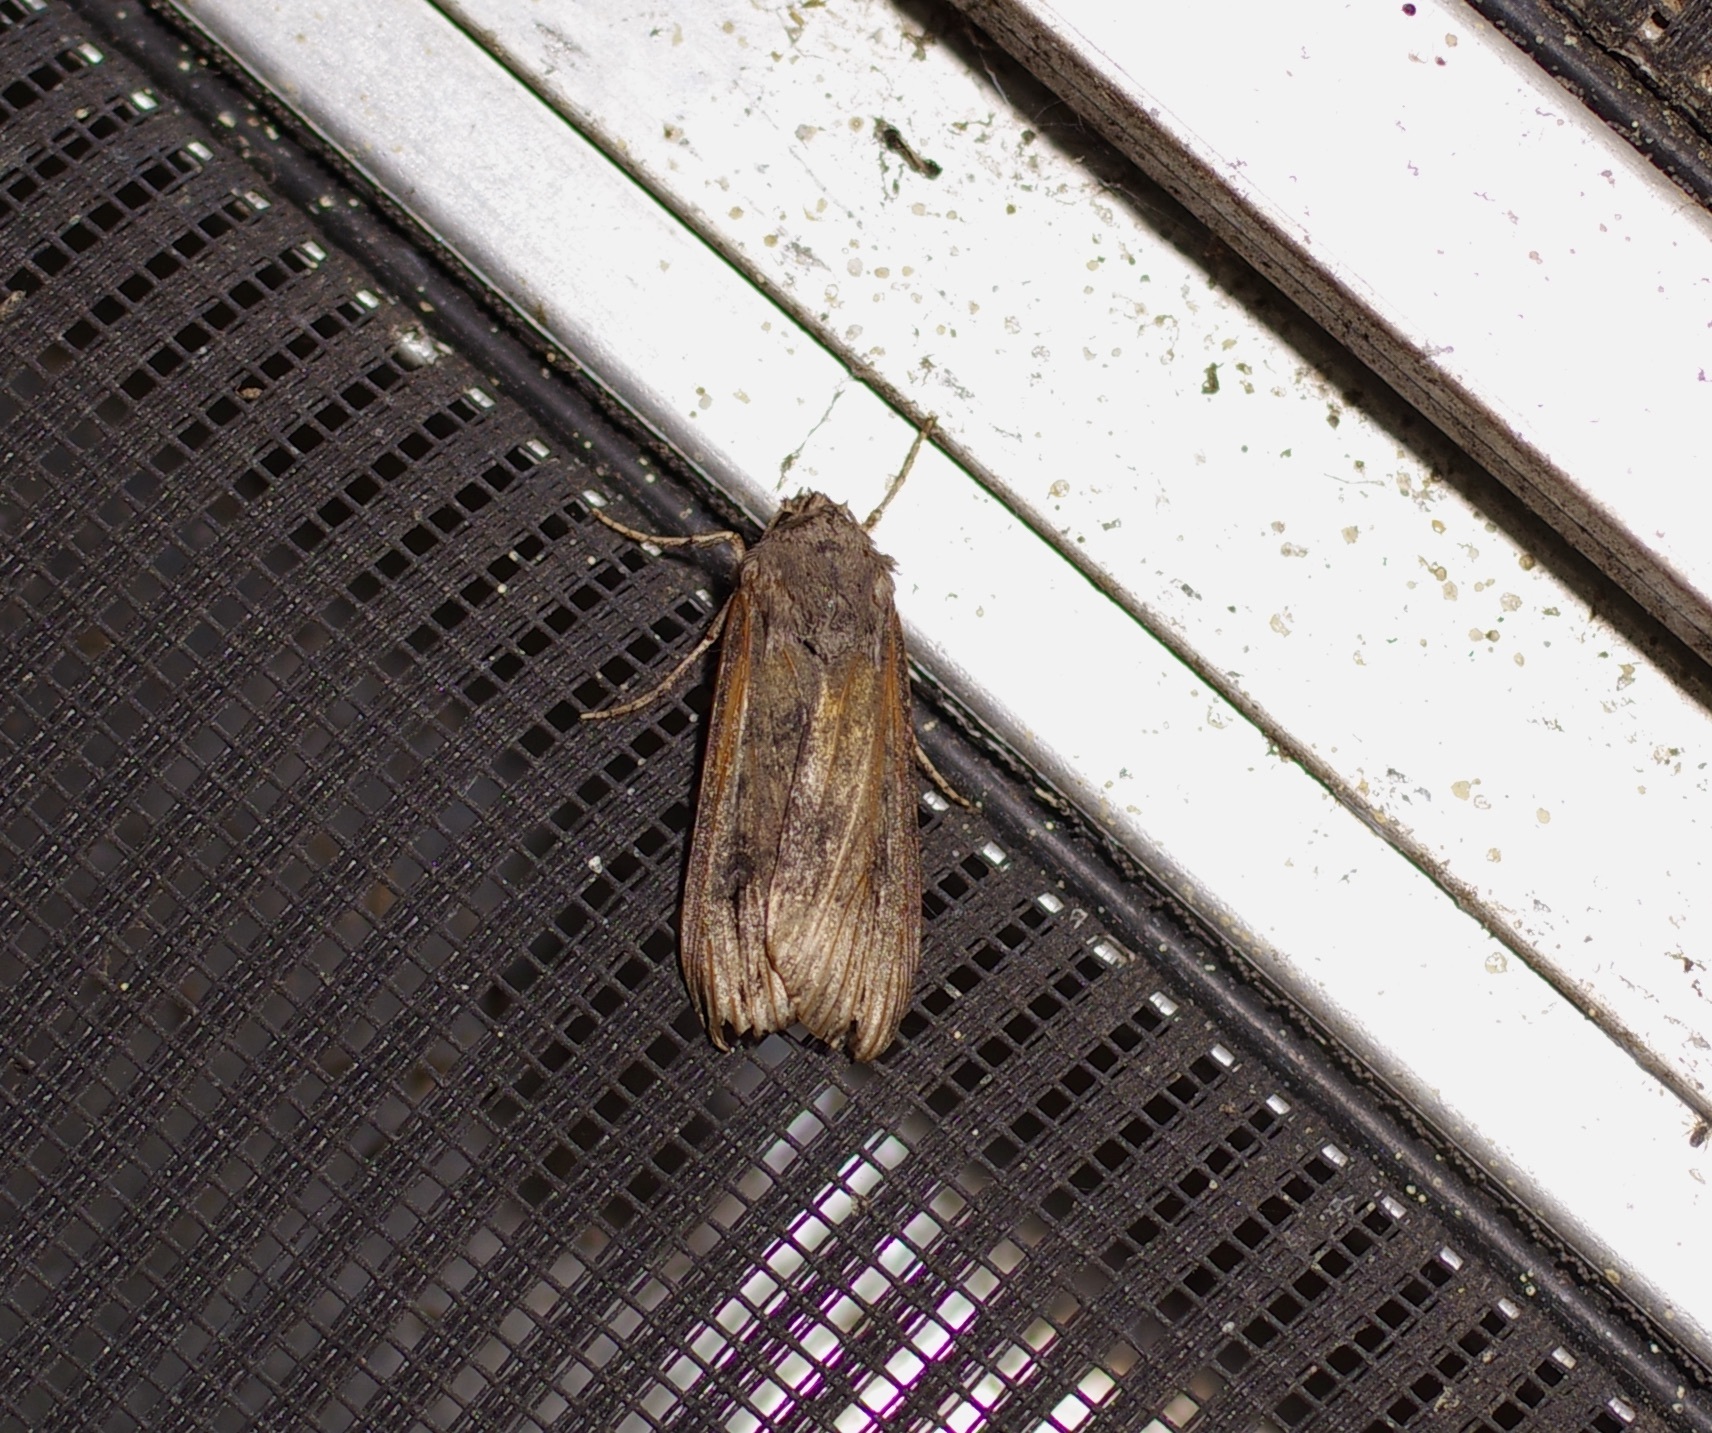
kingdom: Animalia
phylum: Arthropoda
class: Insecta
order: Lepidoptera
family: Noctuidae
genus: Agrotis
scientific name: Agrotis ipsilon
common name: Dark sword-grass
